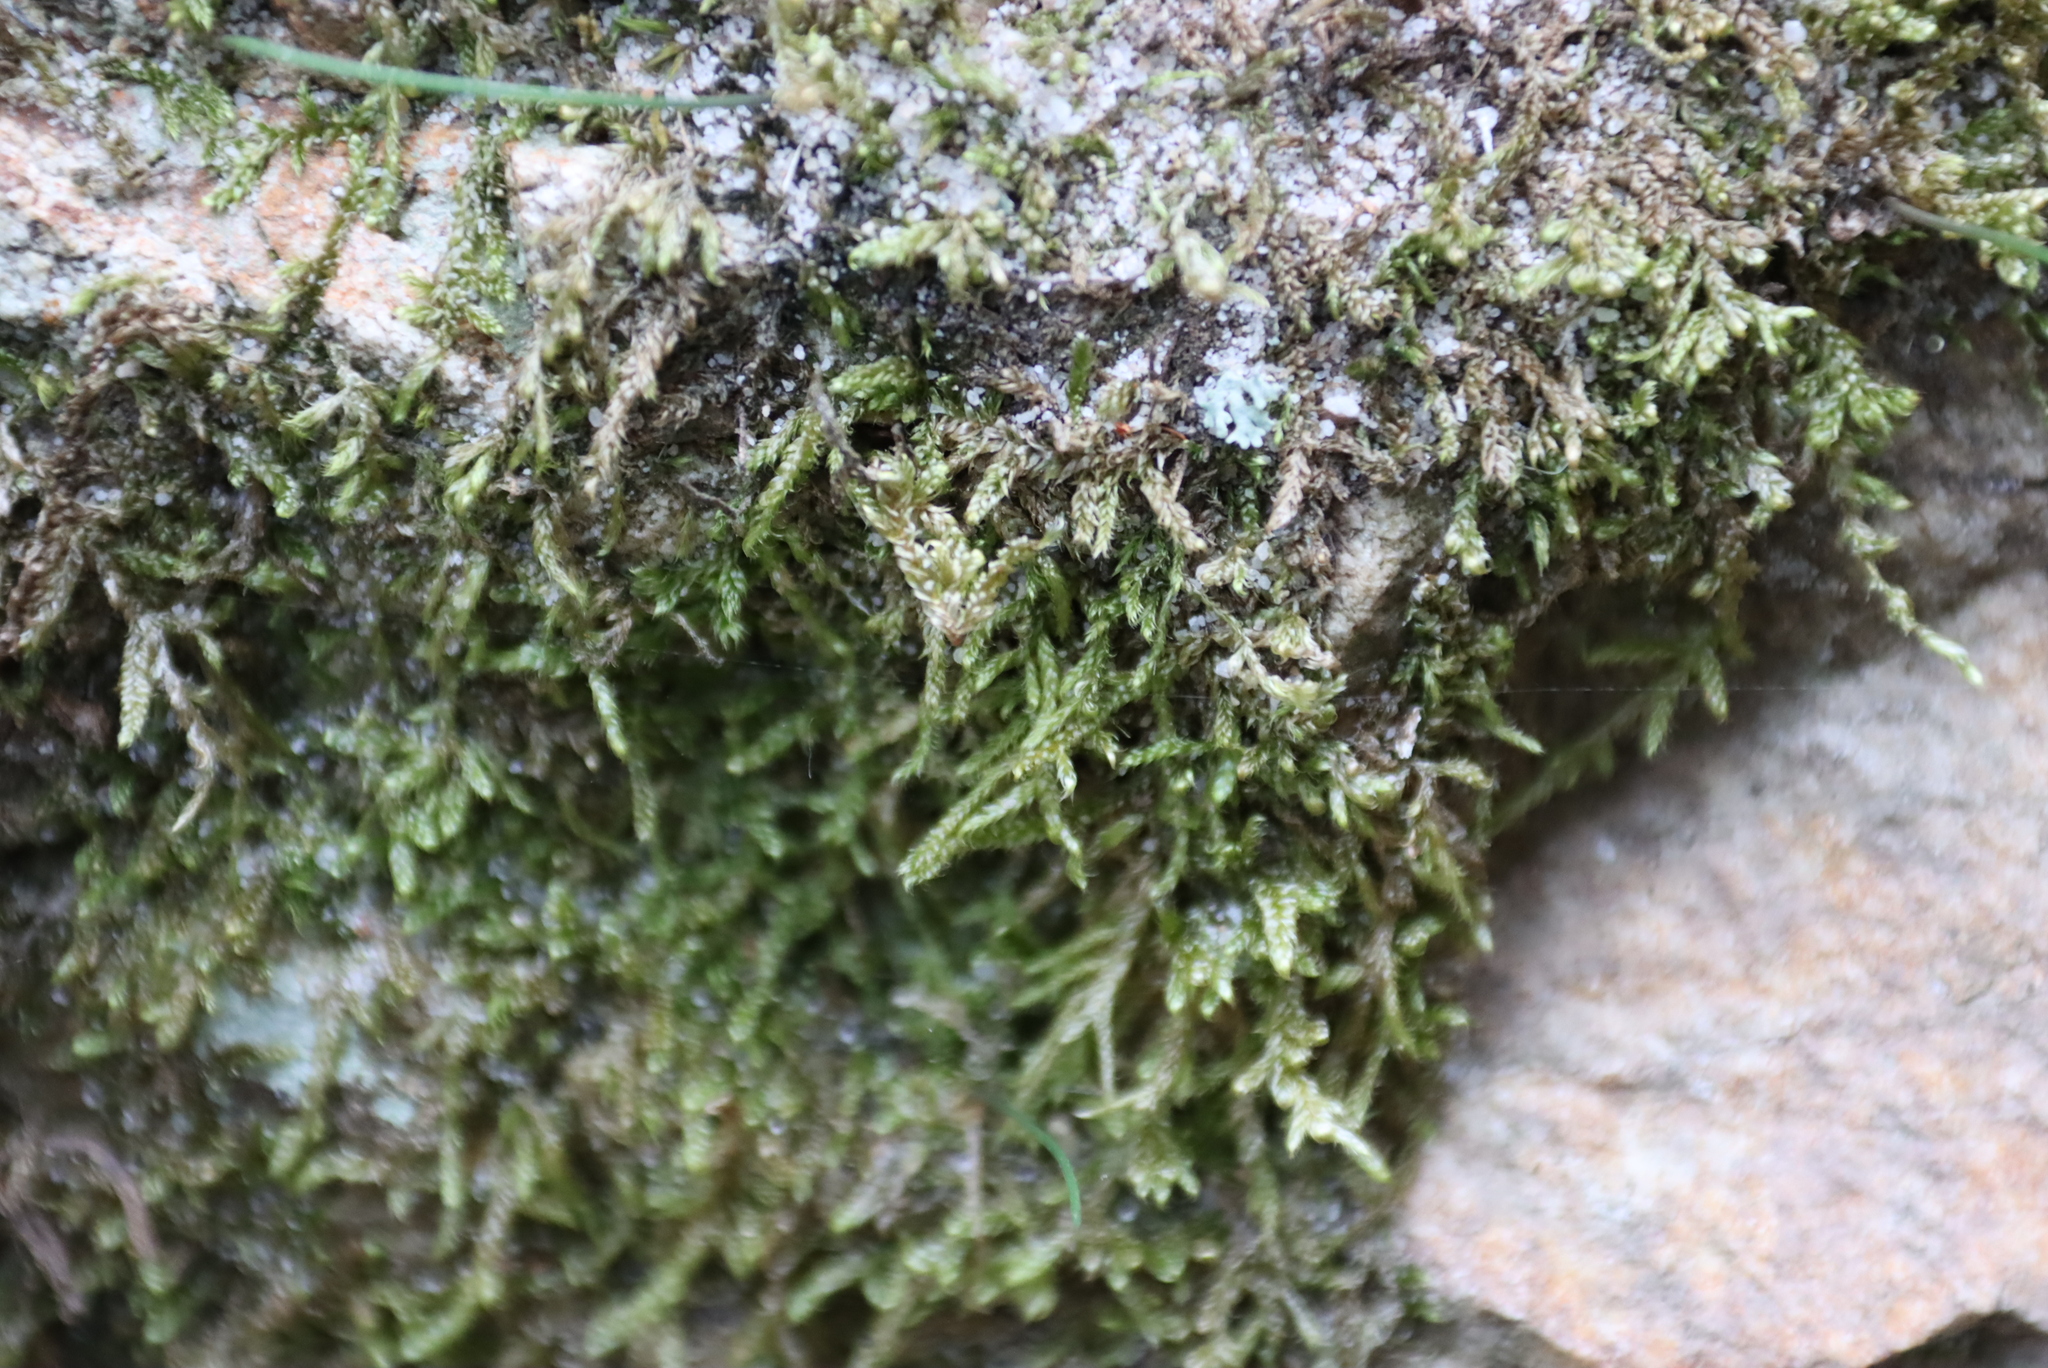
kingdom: Plantae
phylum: Bryophyta
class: Bryopsida
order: Hypnales
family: Hypnaceae
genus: Hypnum
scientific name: Hypnum cupressiforme
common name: Cypress-leaved plait-moss
